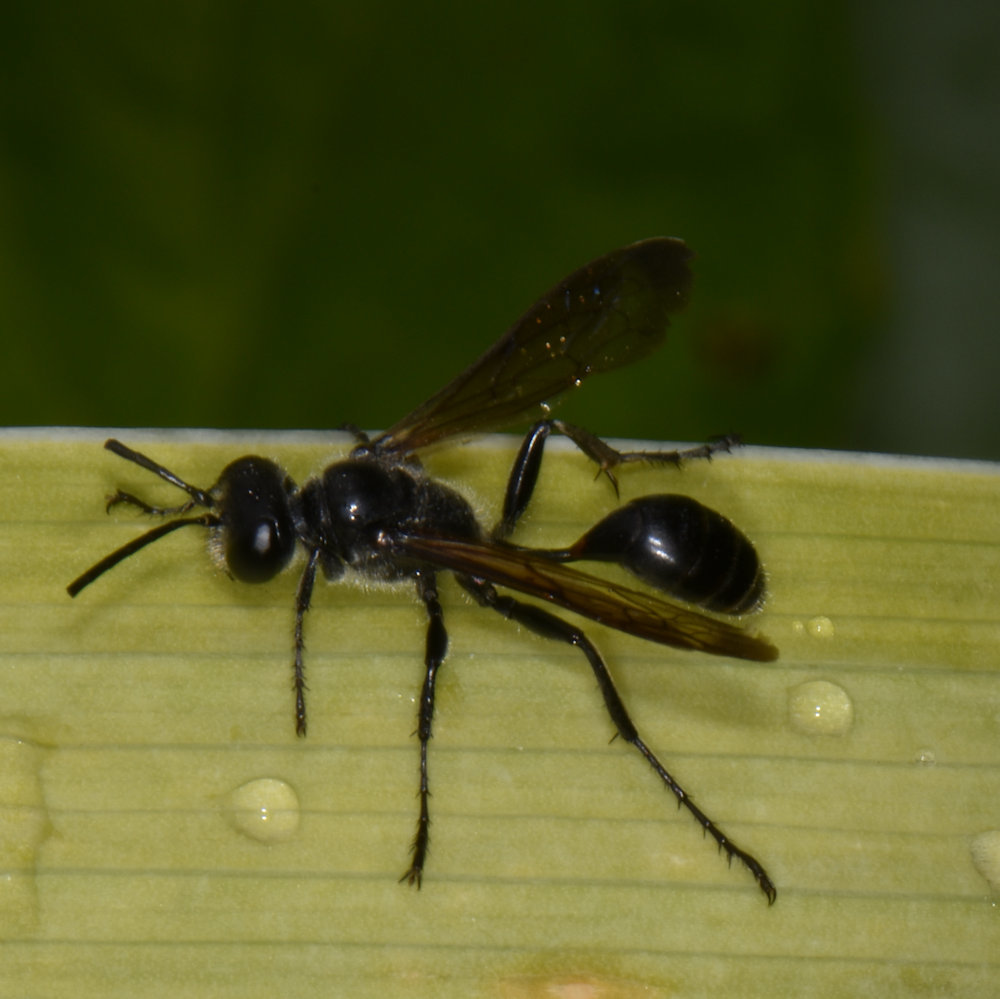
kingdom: Animalia
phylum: Arthropoda
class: Insecta
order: Hymenoptera
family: Sphecidae
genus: Isodontia
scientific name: Isodontia mexicana
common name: Mud dauber
